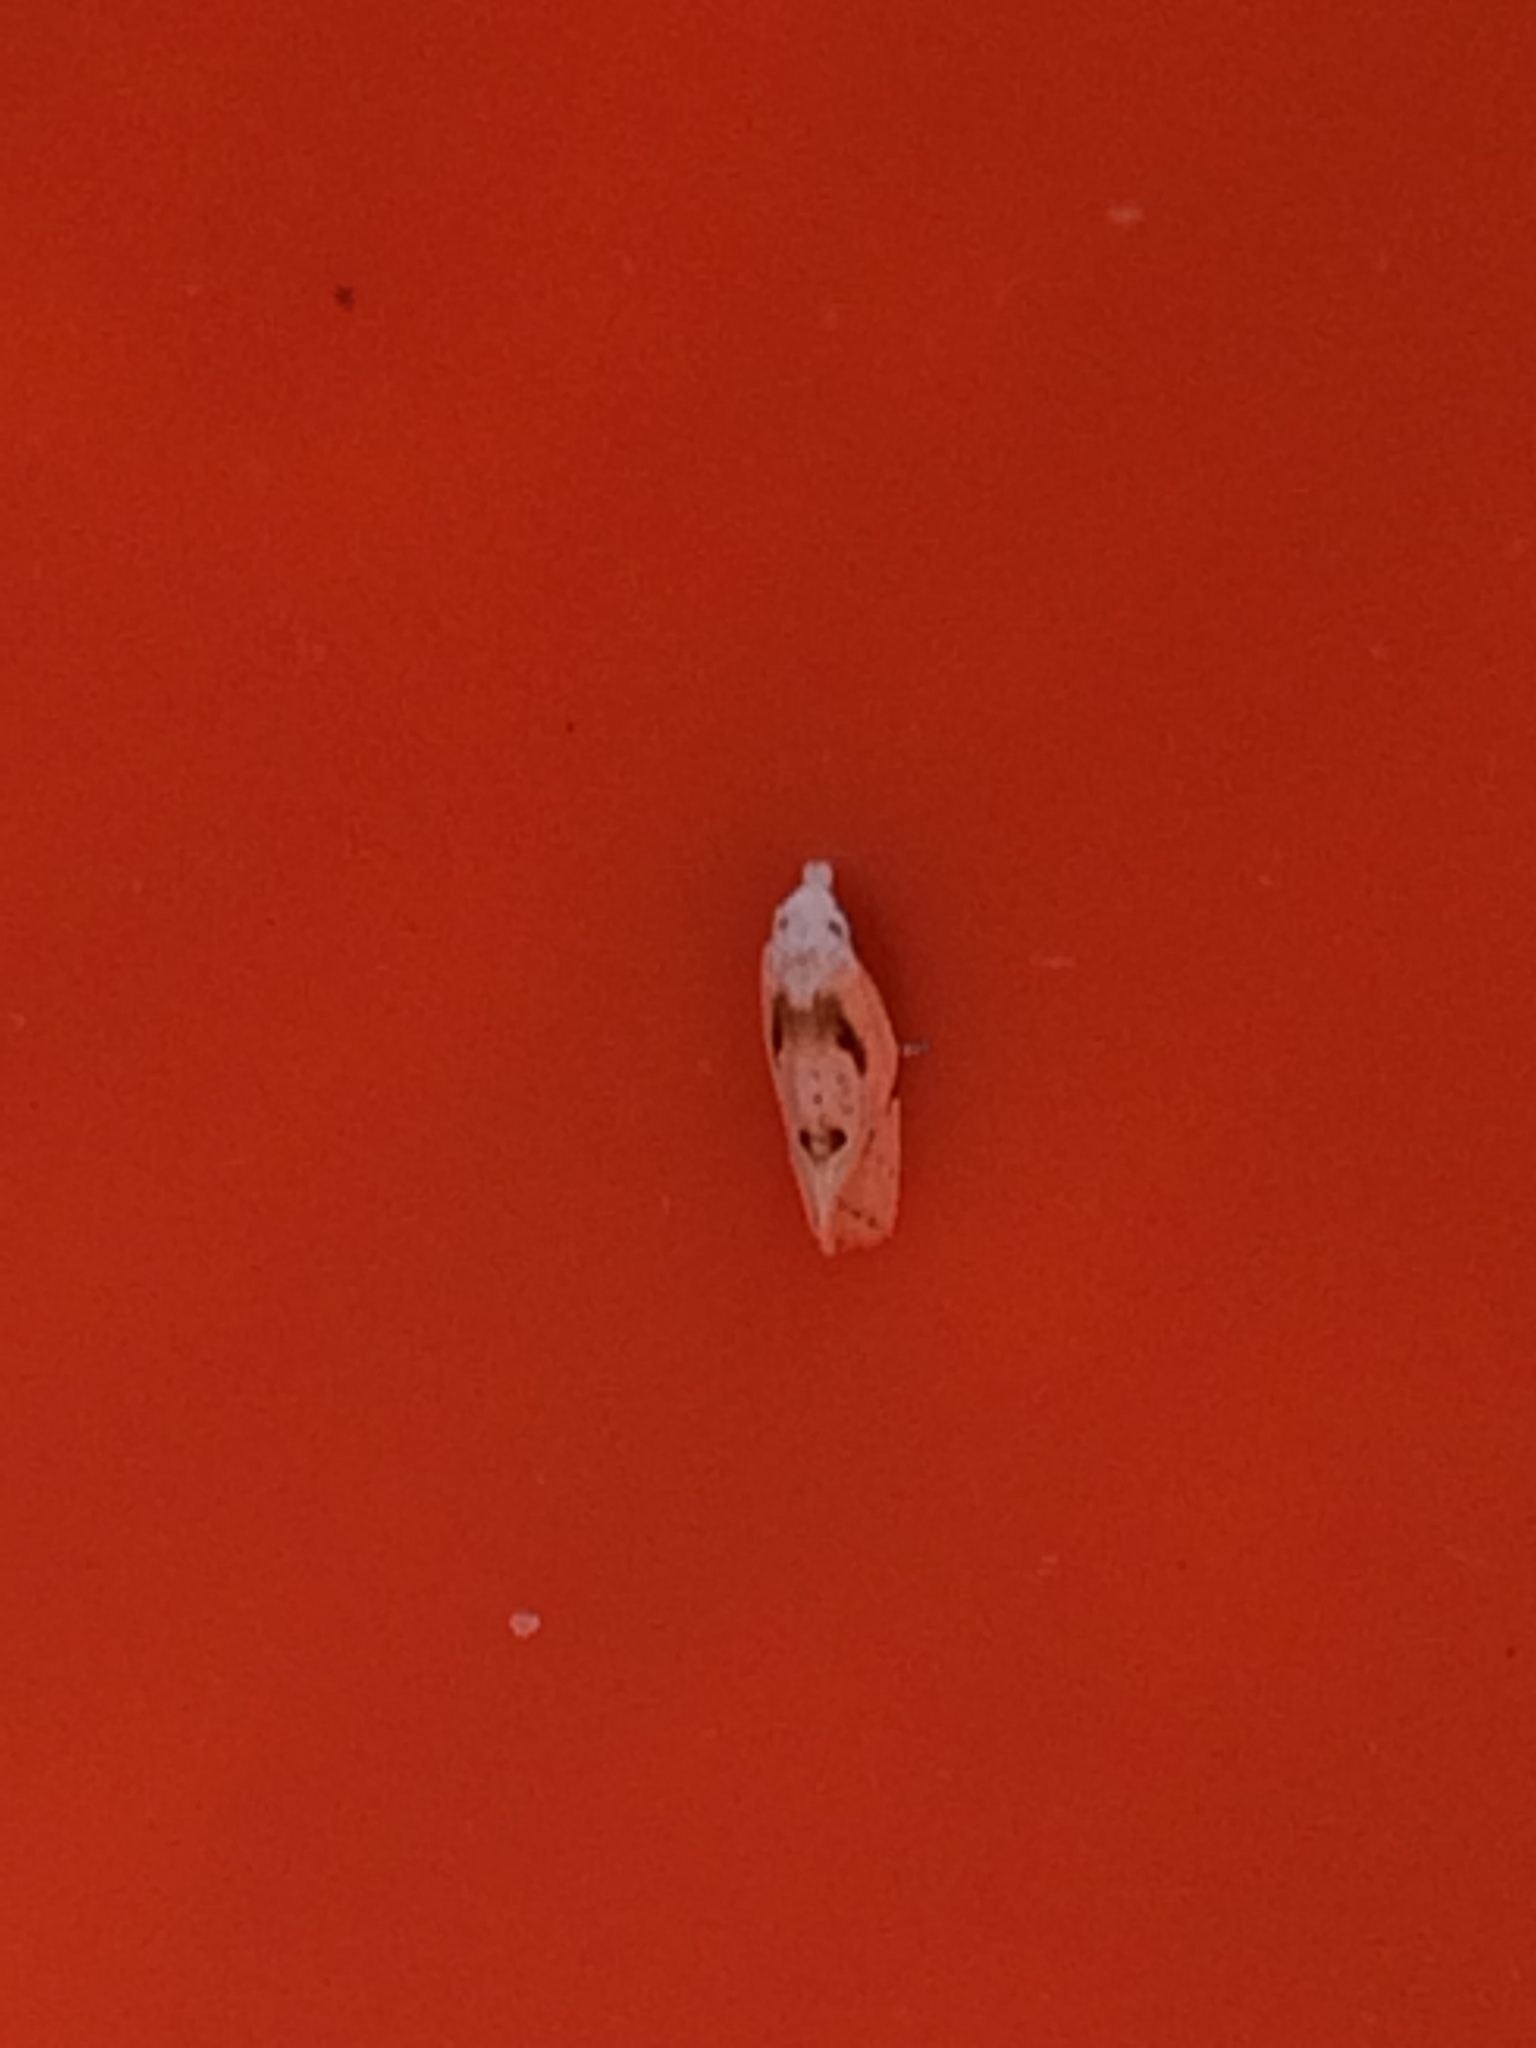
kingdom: Animalia
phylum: Arthropoda
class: Insecta
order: Lepidoptera
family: Tortricidae
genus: Aethes
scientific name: Aethes seriatana
